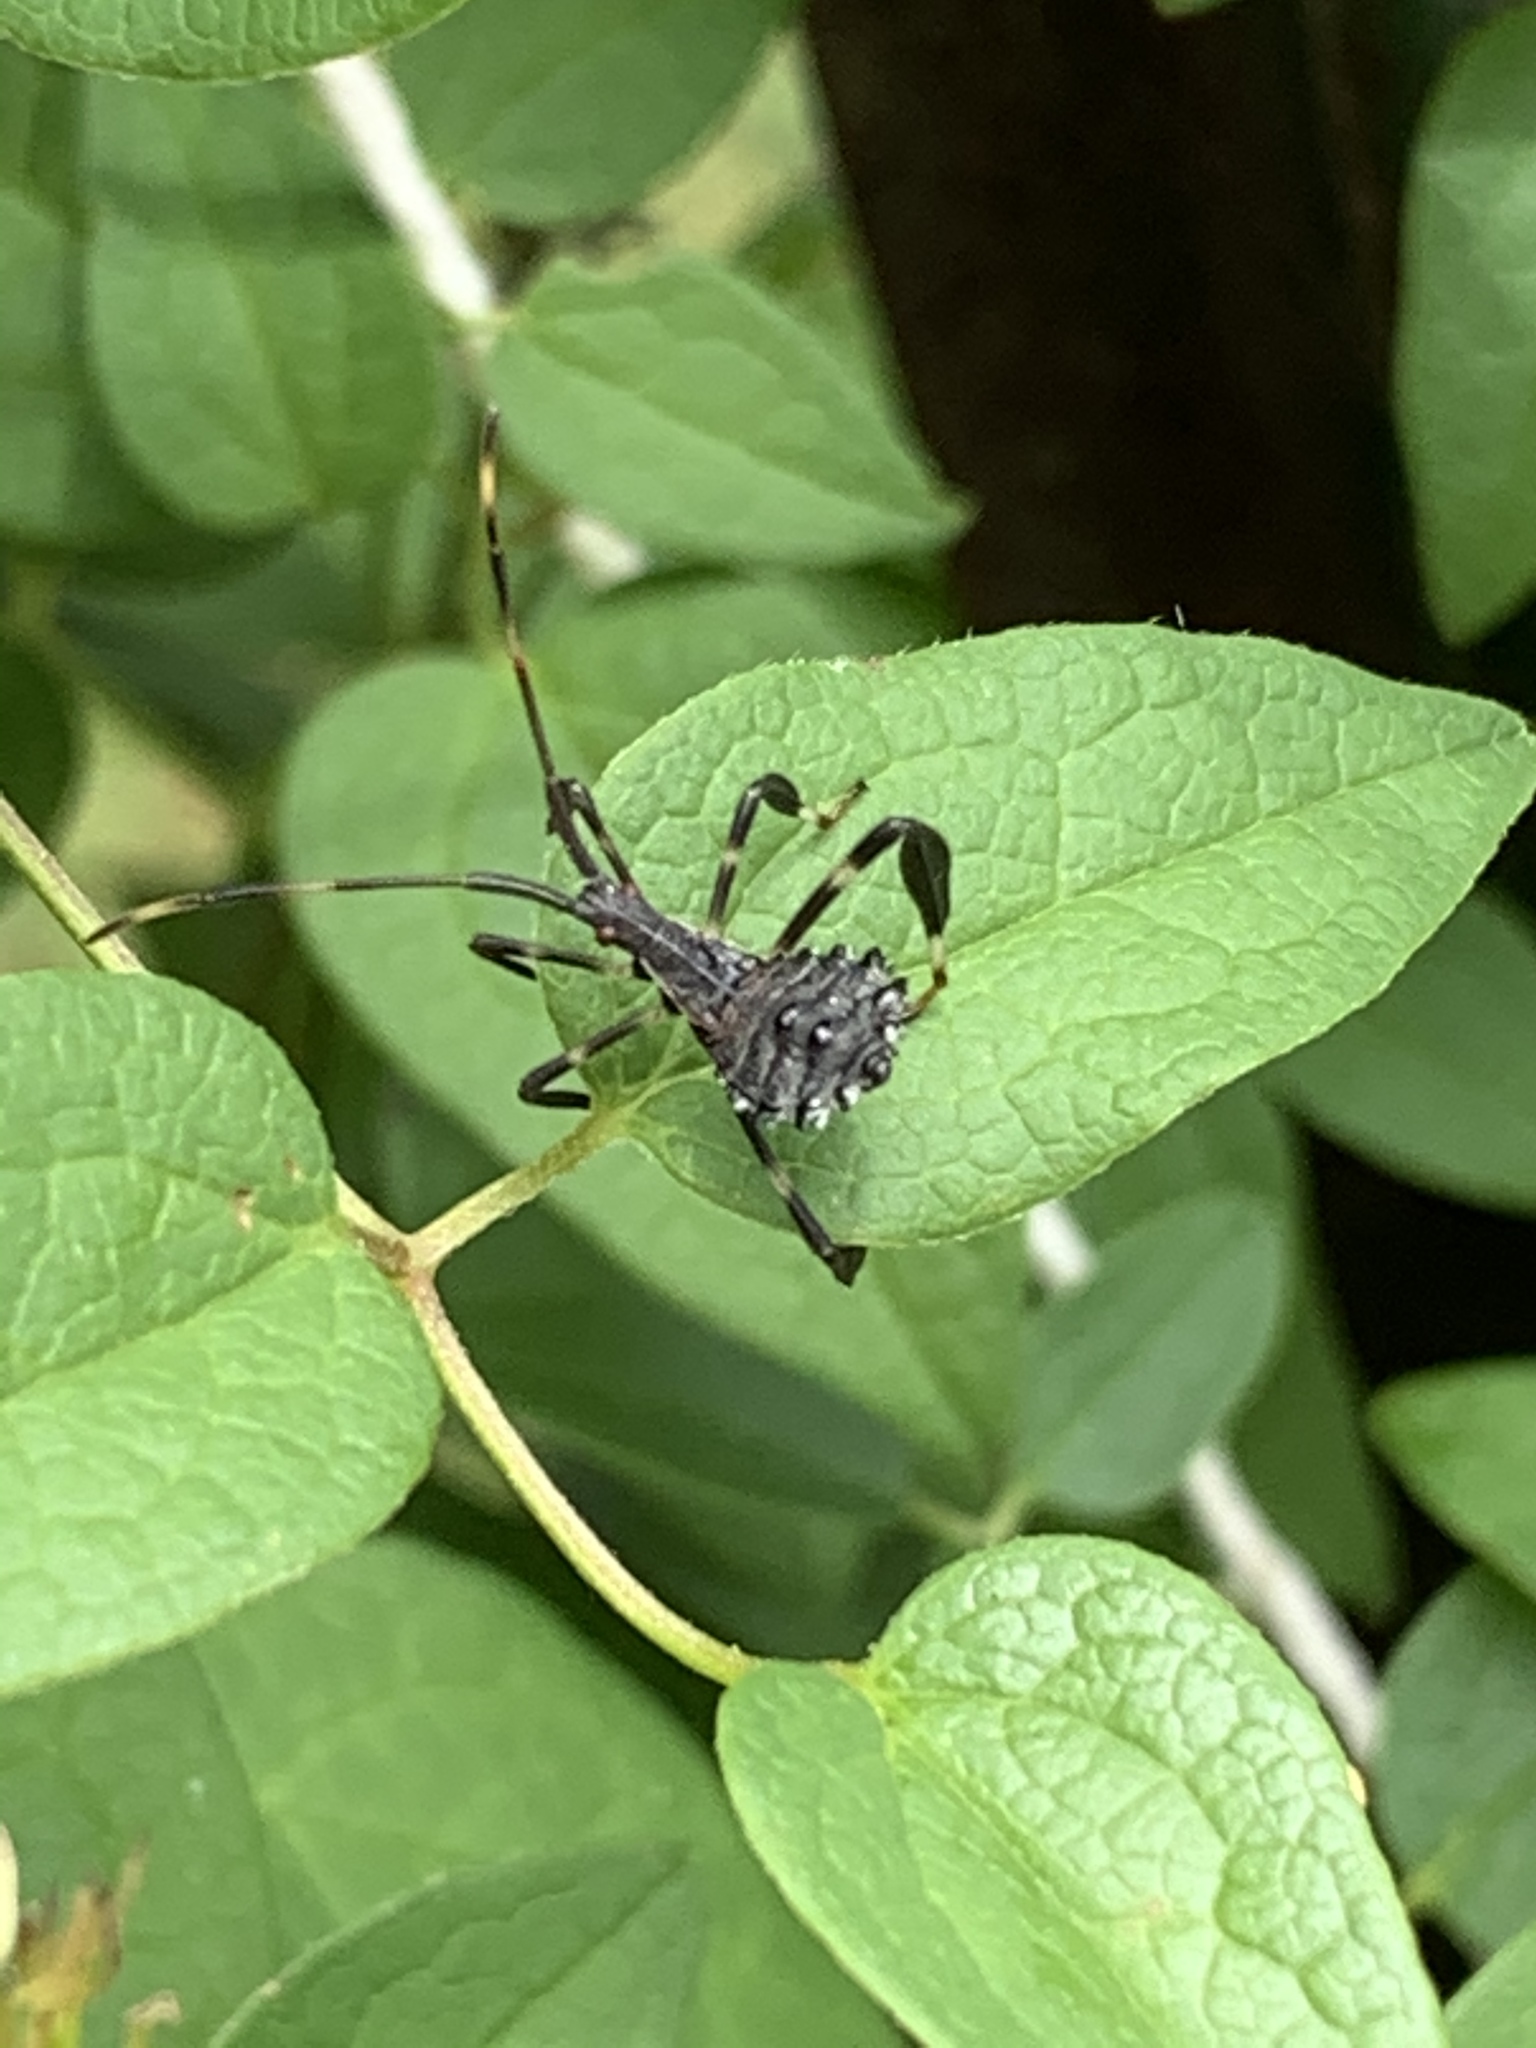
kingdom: Animalia
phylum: Arthropoda
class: Insecta
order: Hemiptera
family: Coreidae
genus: Acanthocephala
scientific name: Acanthocephala terminalis
